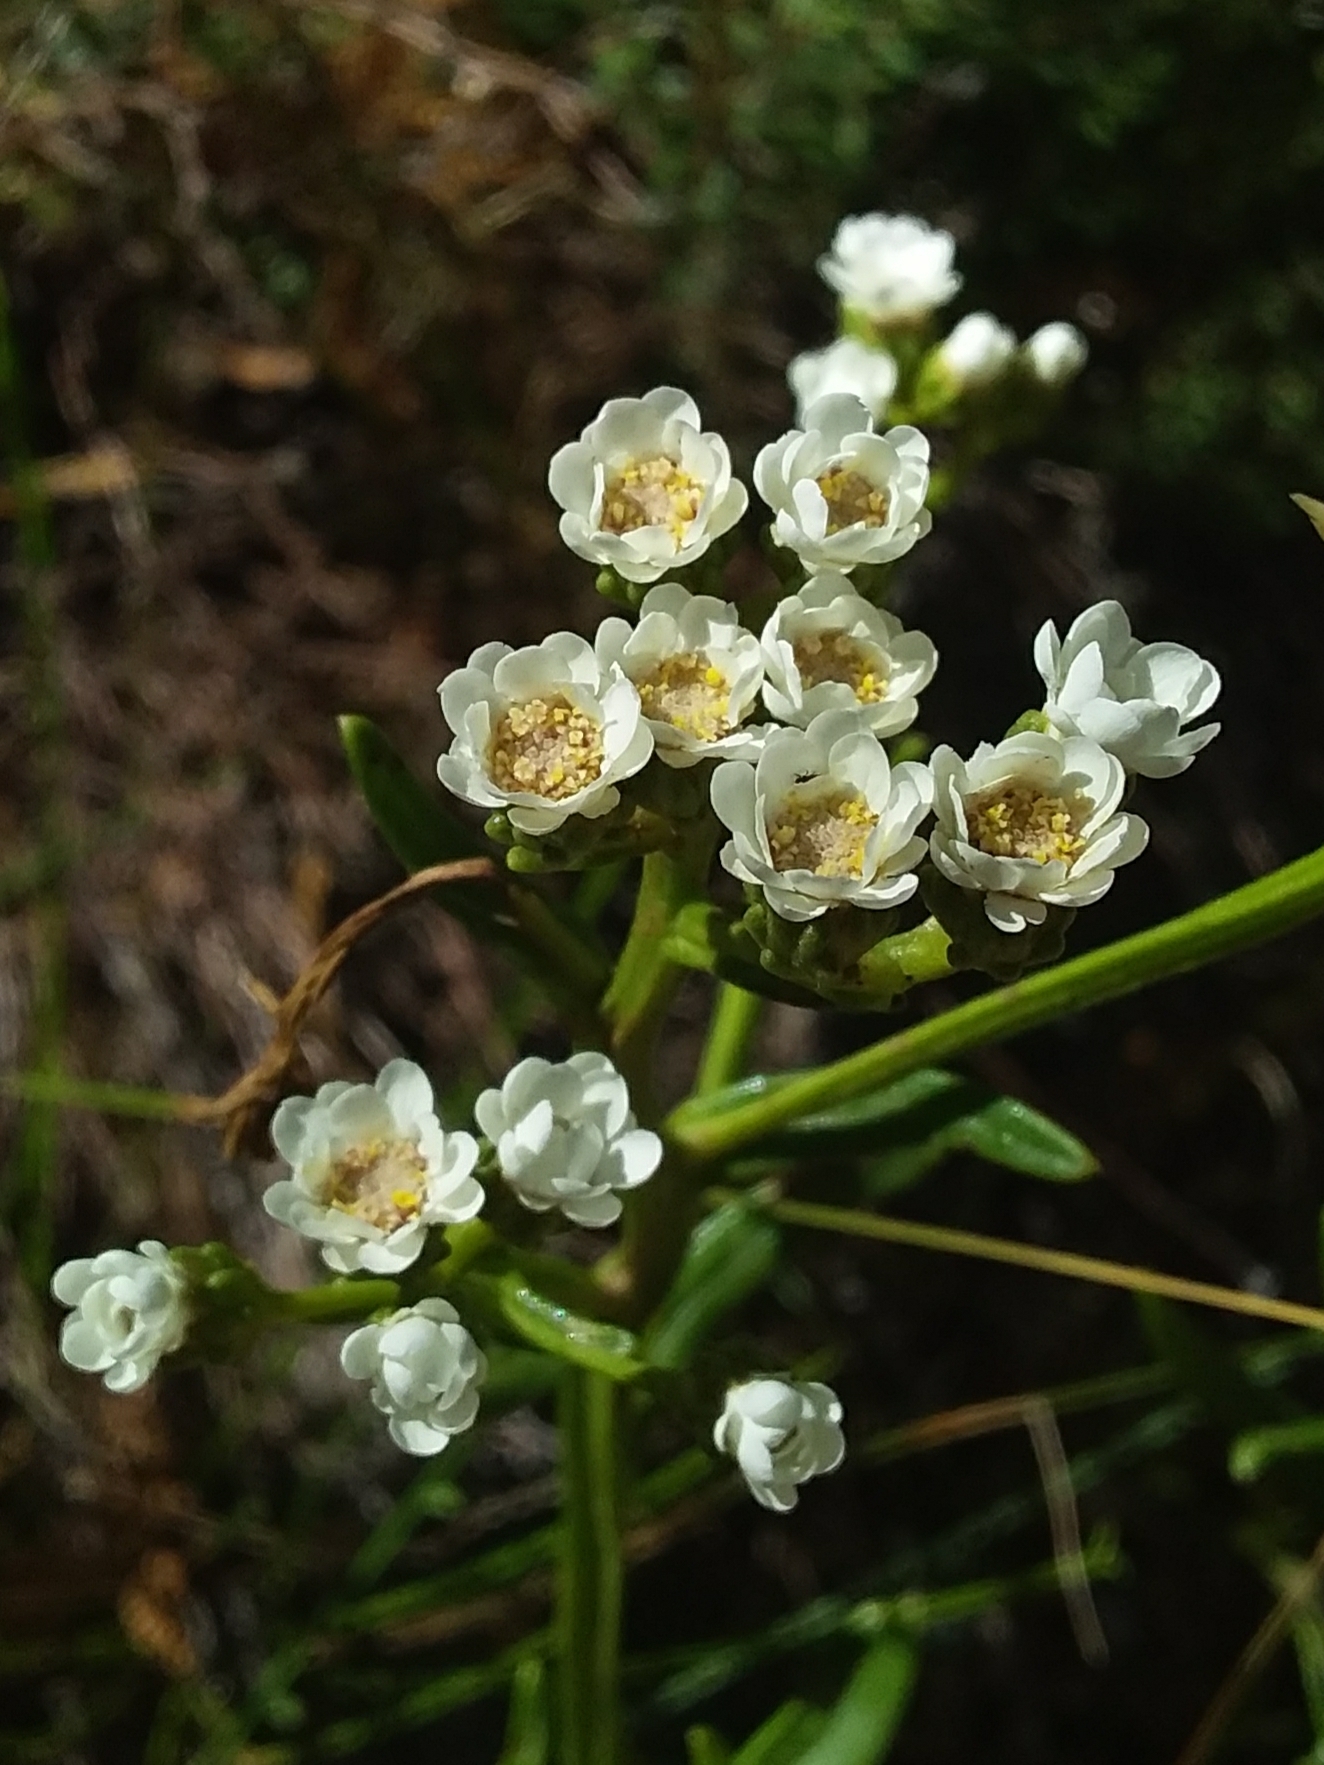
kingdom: Plantae
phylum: Tracheophyta
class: Magnoliopsida
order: Asterales
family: Asteraceae
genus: Ixodia
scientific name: Ixodia achillaeoides
